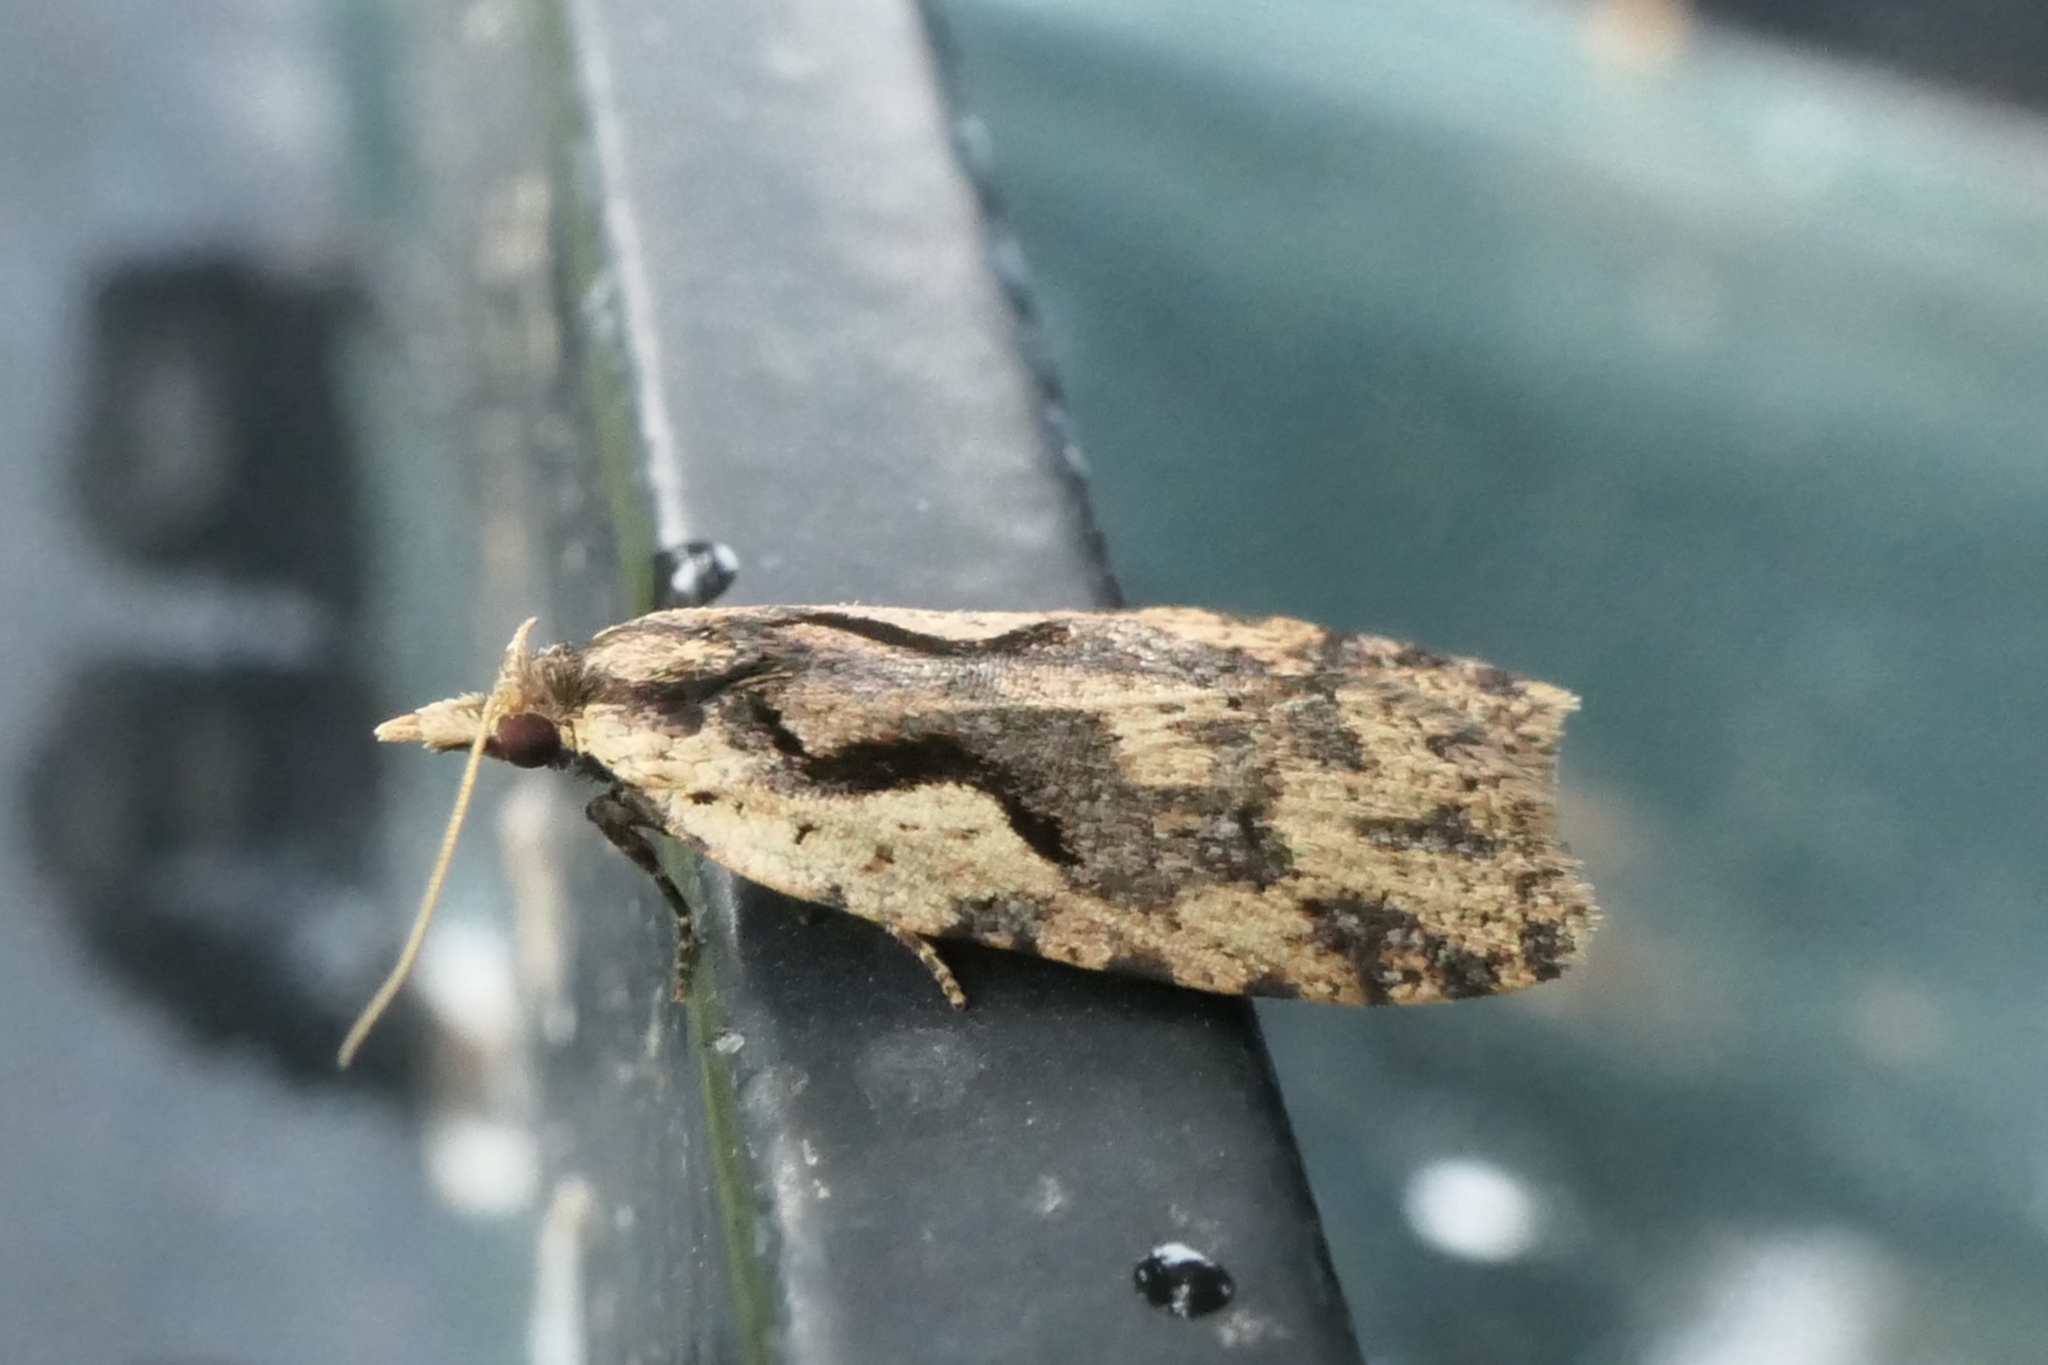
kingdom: Animalia
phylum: Arthropoda
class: Insecta
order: Lepidoptera
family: Tortricidae
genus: Cnephasia
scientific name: Cnephasia jactatana
